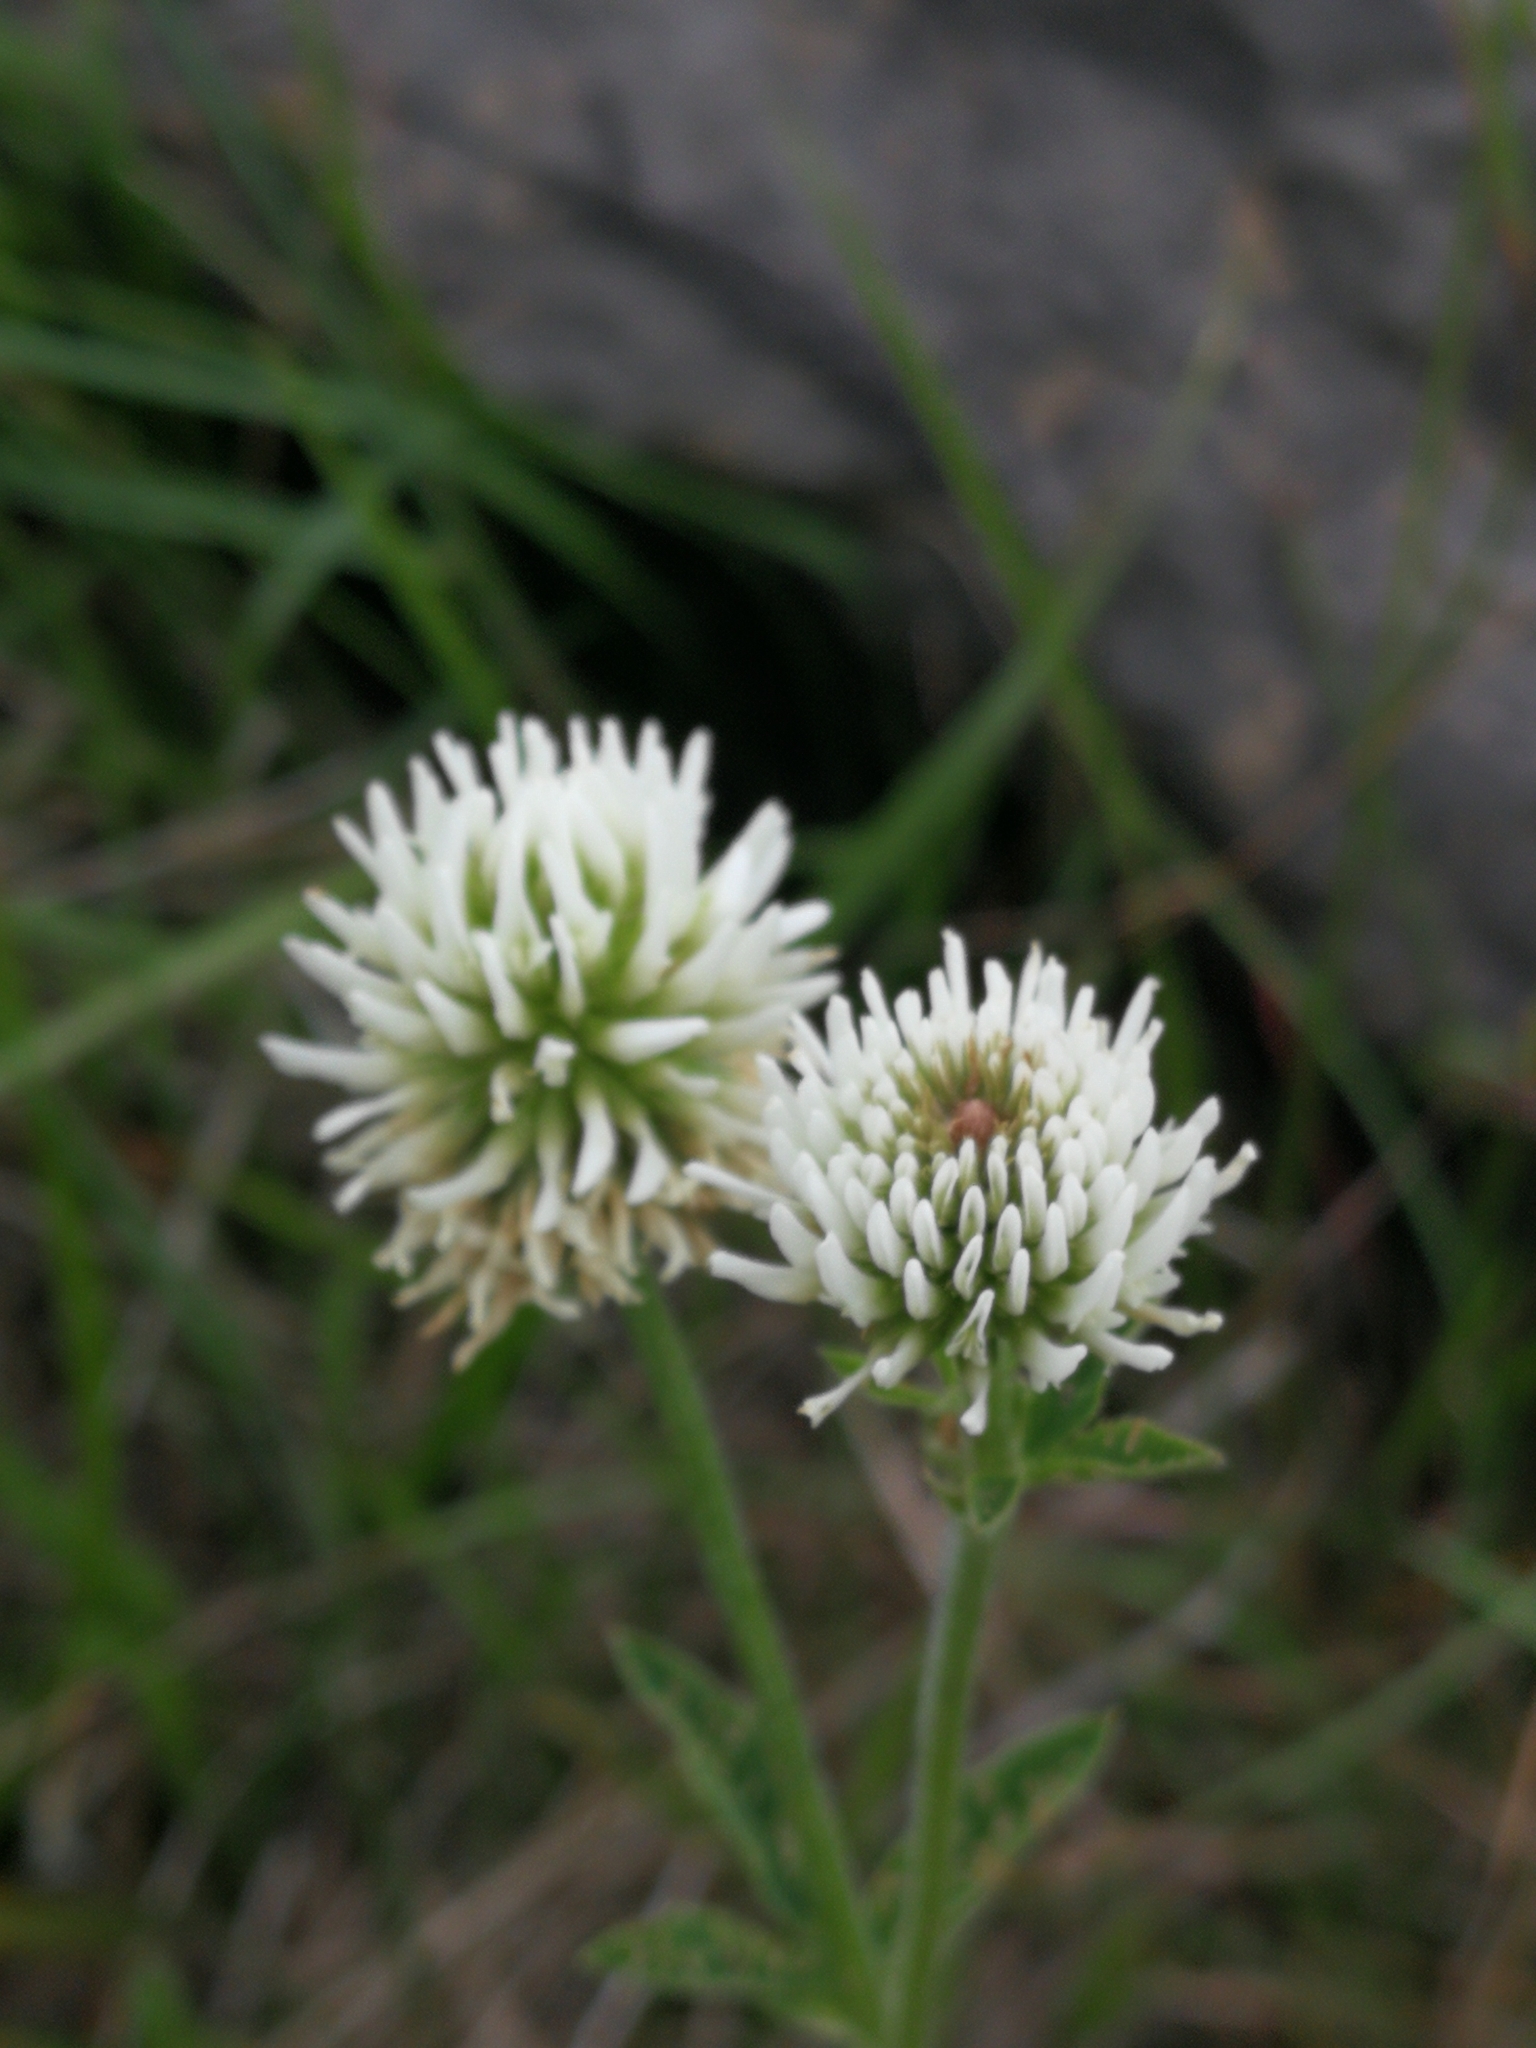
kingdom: Plantae
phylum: Tracheophyta
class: Magnoliopsida
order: Fabales
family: Fabaceae
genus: Trifolium
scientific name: Trifolium montanum
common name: Mountain clover
